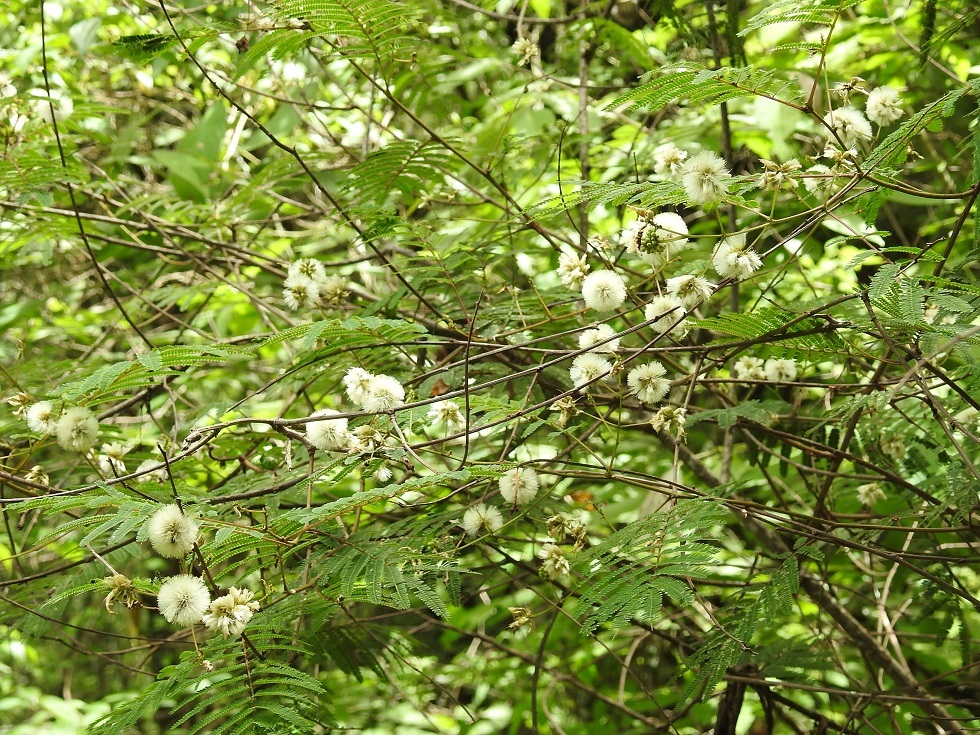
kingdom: Plantae
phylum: Tracheophyta
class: Magnoliopsida
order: Fabales
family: Fabaceae
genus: Acaciella
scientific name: Acaciella angustissima
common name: Prairie acacia
